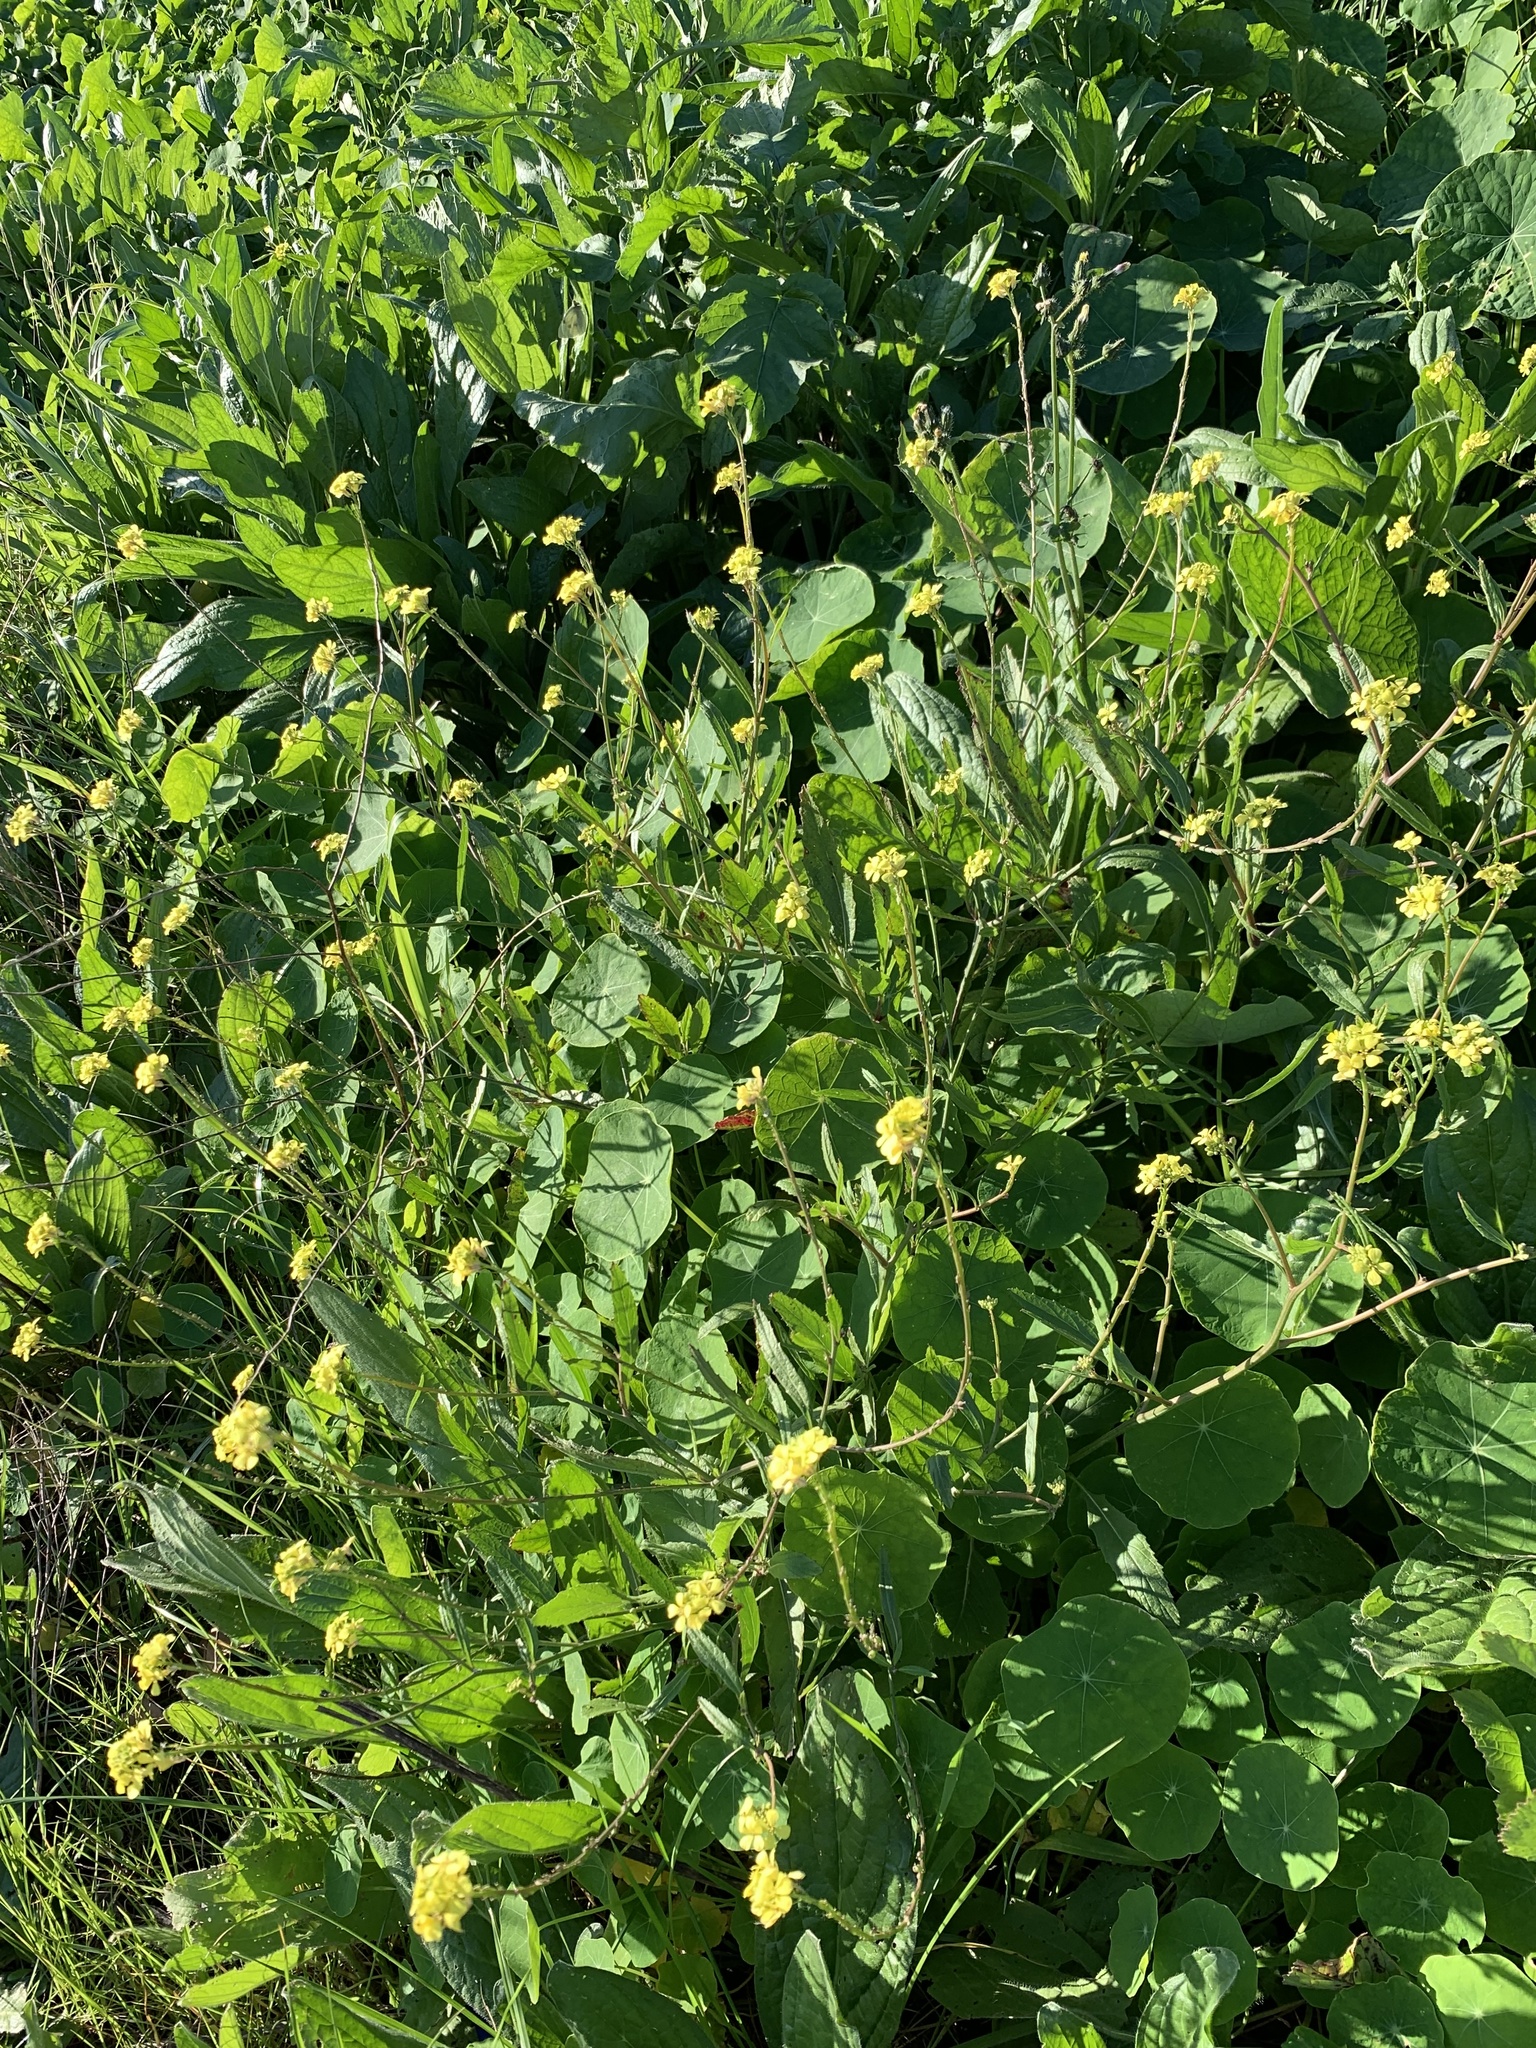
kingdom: Plantae
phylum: Tracheophyta
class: Magnoliopsida
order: Brassicales
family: Brassicaceae
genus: Rapistrum
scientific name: Rapistrum rugosum
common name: Annual bastardcabbage
